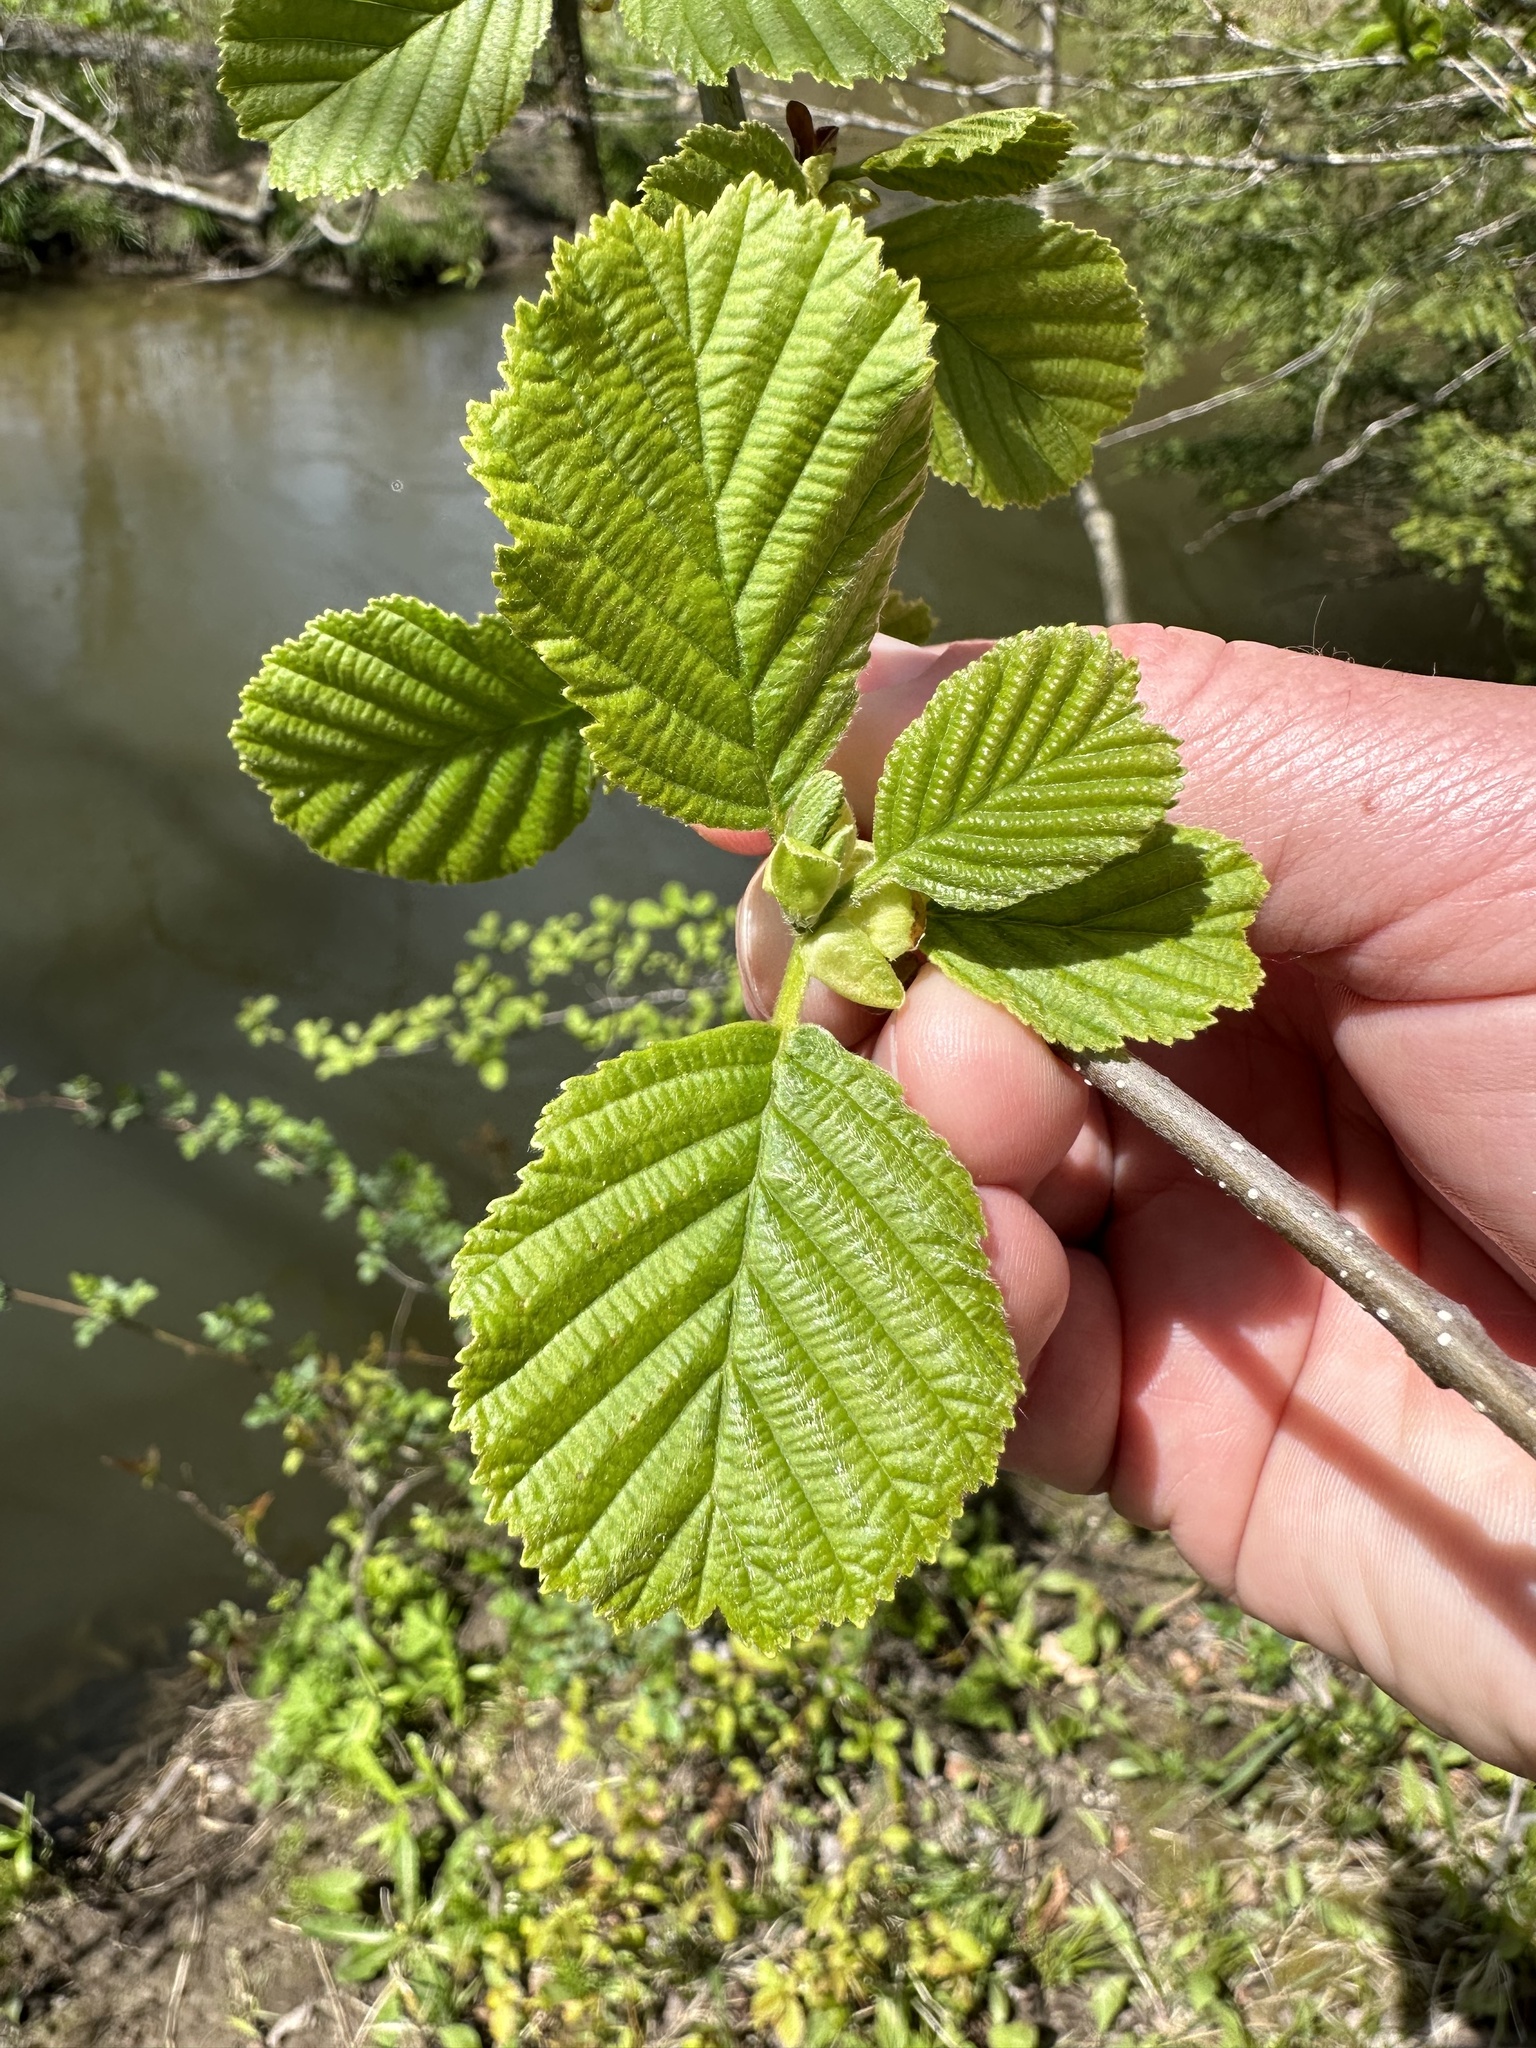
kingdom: Plantae
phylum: Tracheophyta
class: Magnoliopsida
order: Fagales
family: Betulaceae
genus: Alnus
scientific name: Alnus glutinosa
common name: Black alder
